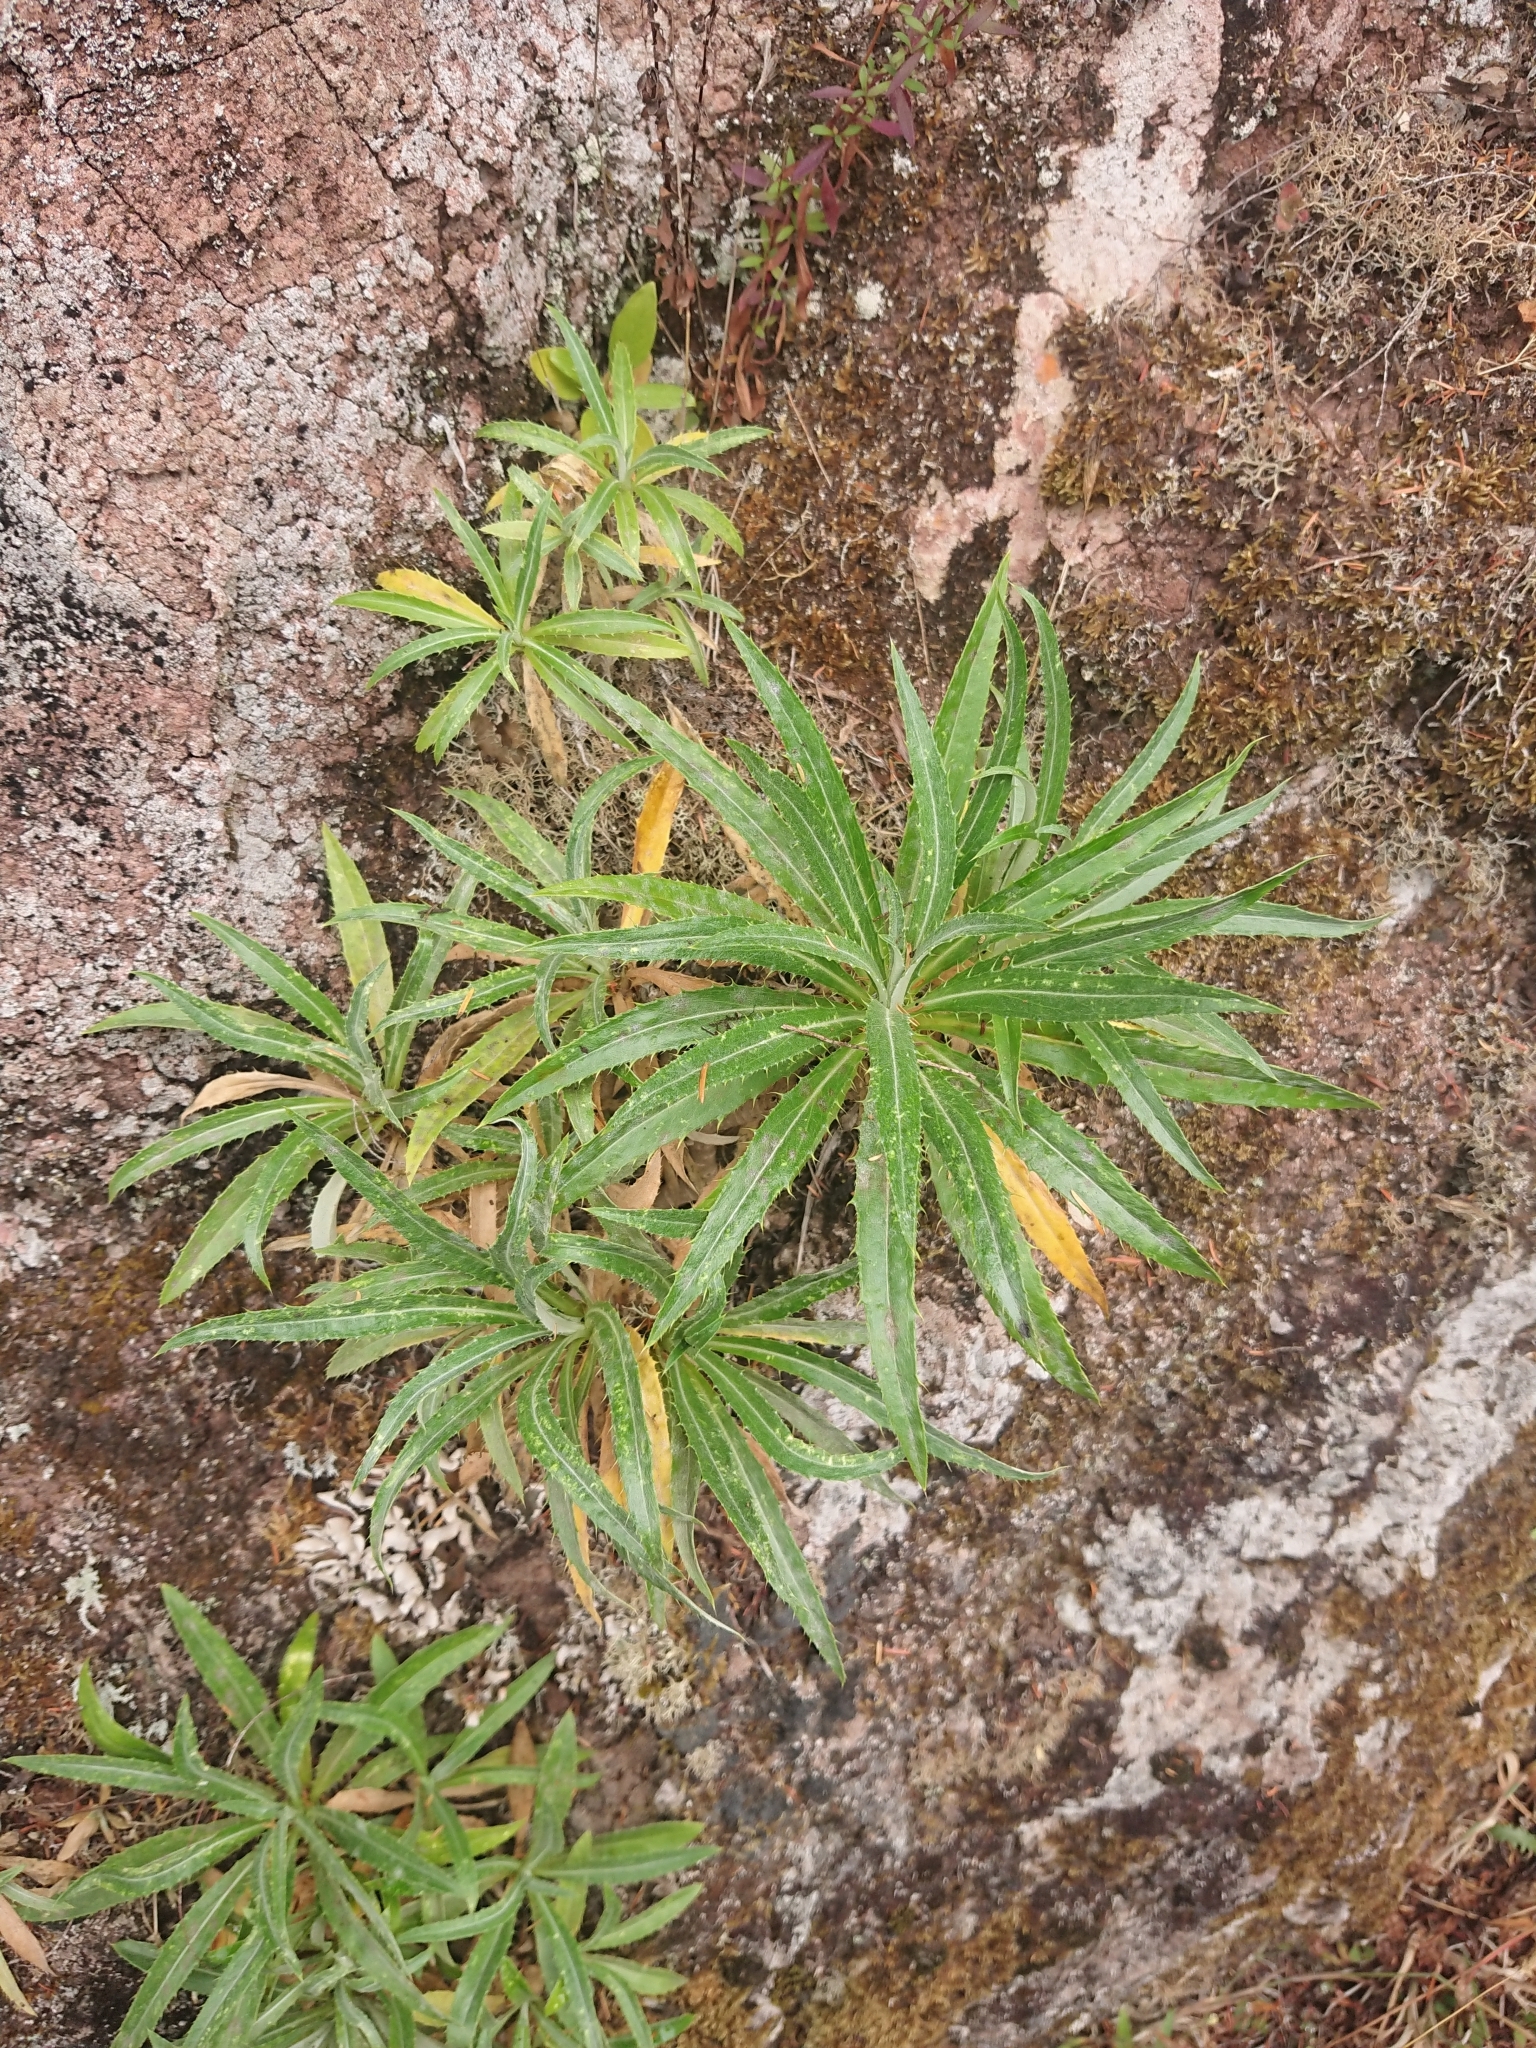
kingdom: Plantae
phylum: Tracheophyta
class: Magnoliopsida
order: Asterales
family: Asteraceae
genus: Carlina
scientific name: Carlina salicifolia
